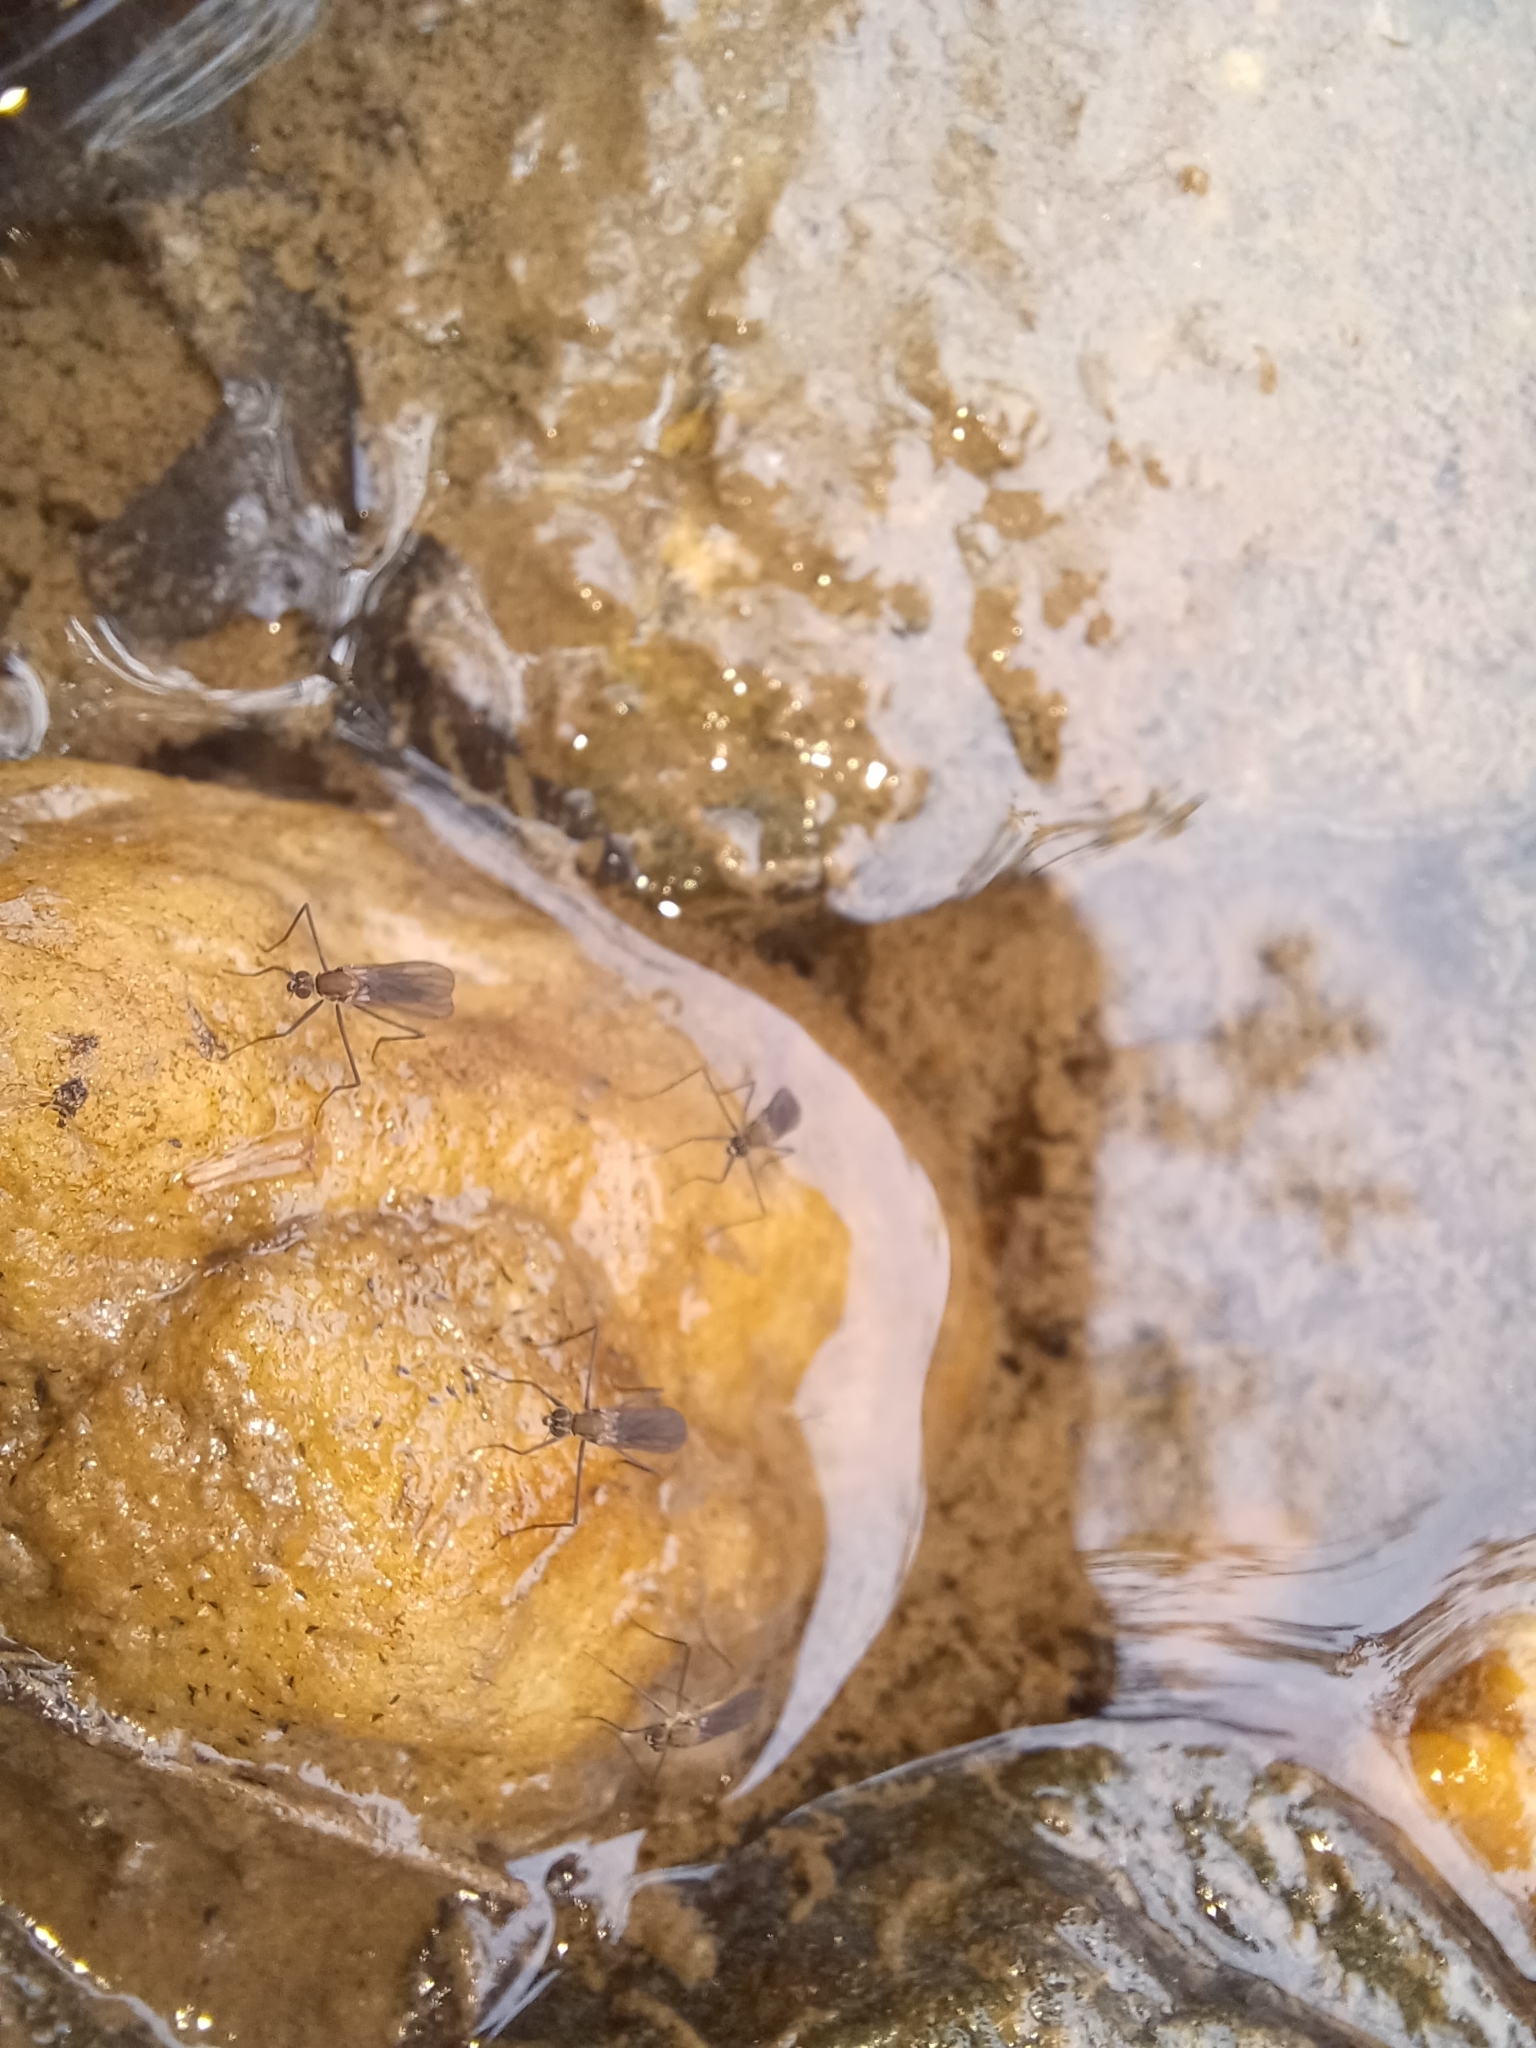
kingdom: Animalia
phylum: Arthropoda
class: Insecta
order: Diptera
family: Empididae
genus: Trichoclinocera
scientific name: Trichoclinocera pectinifemur
